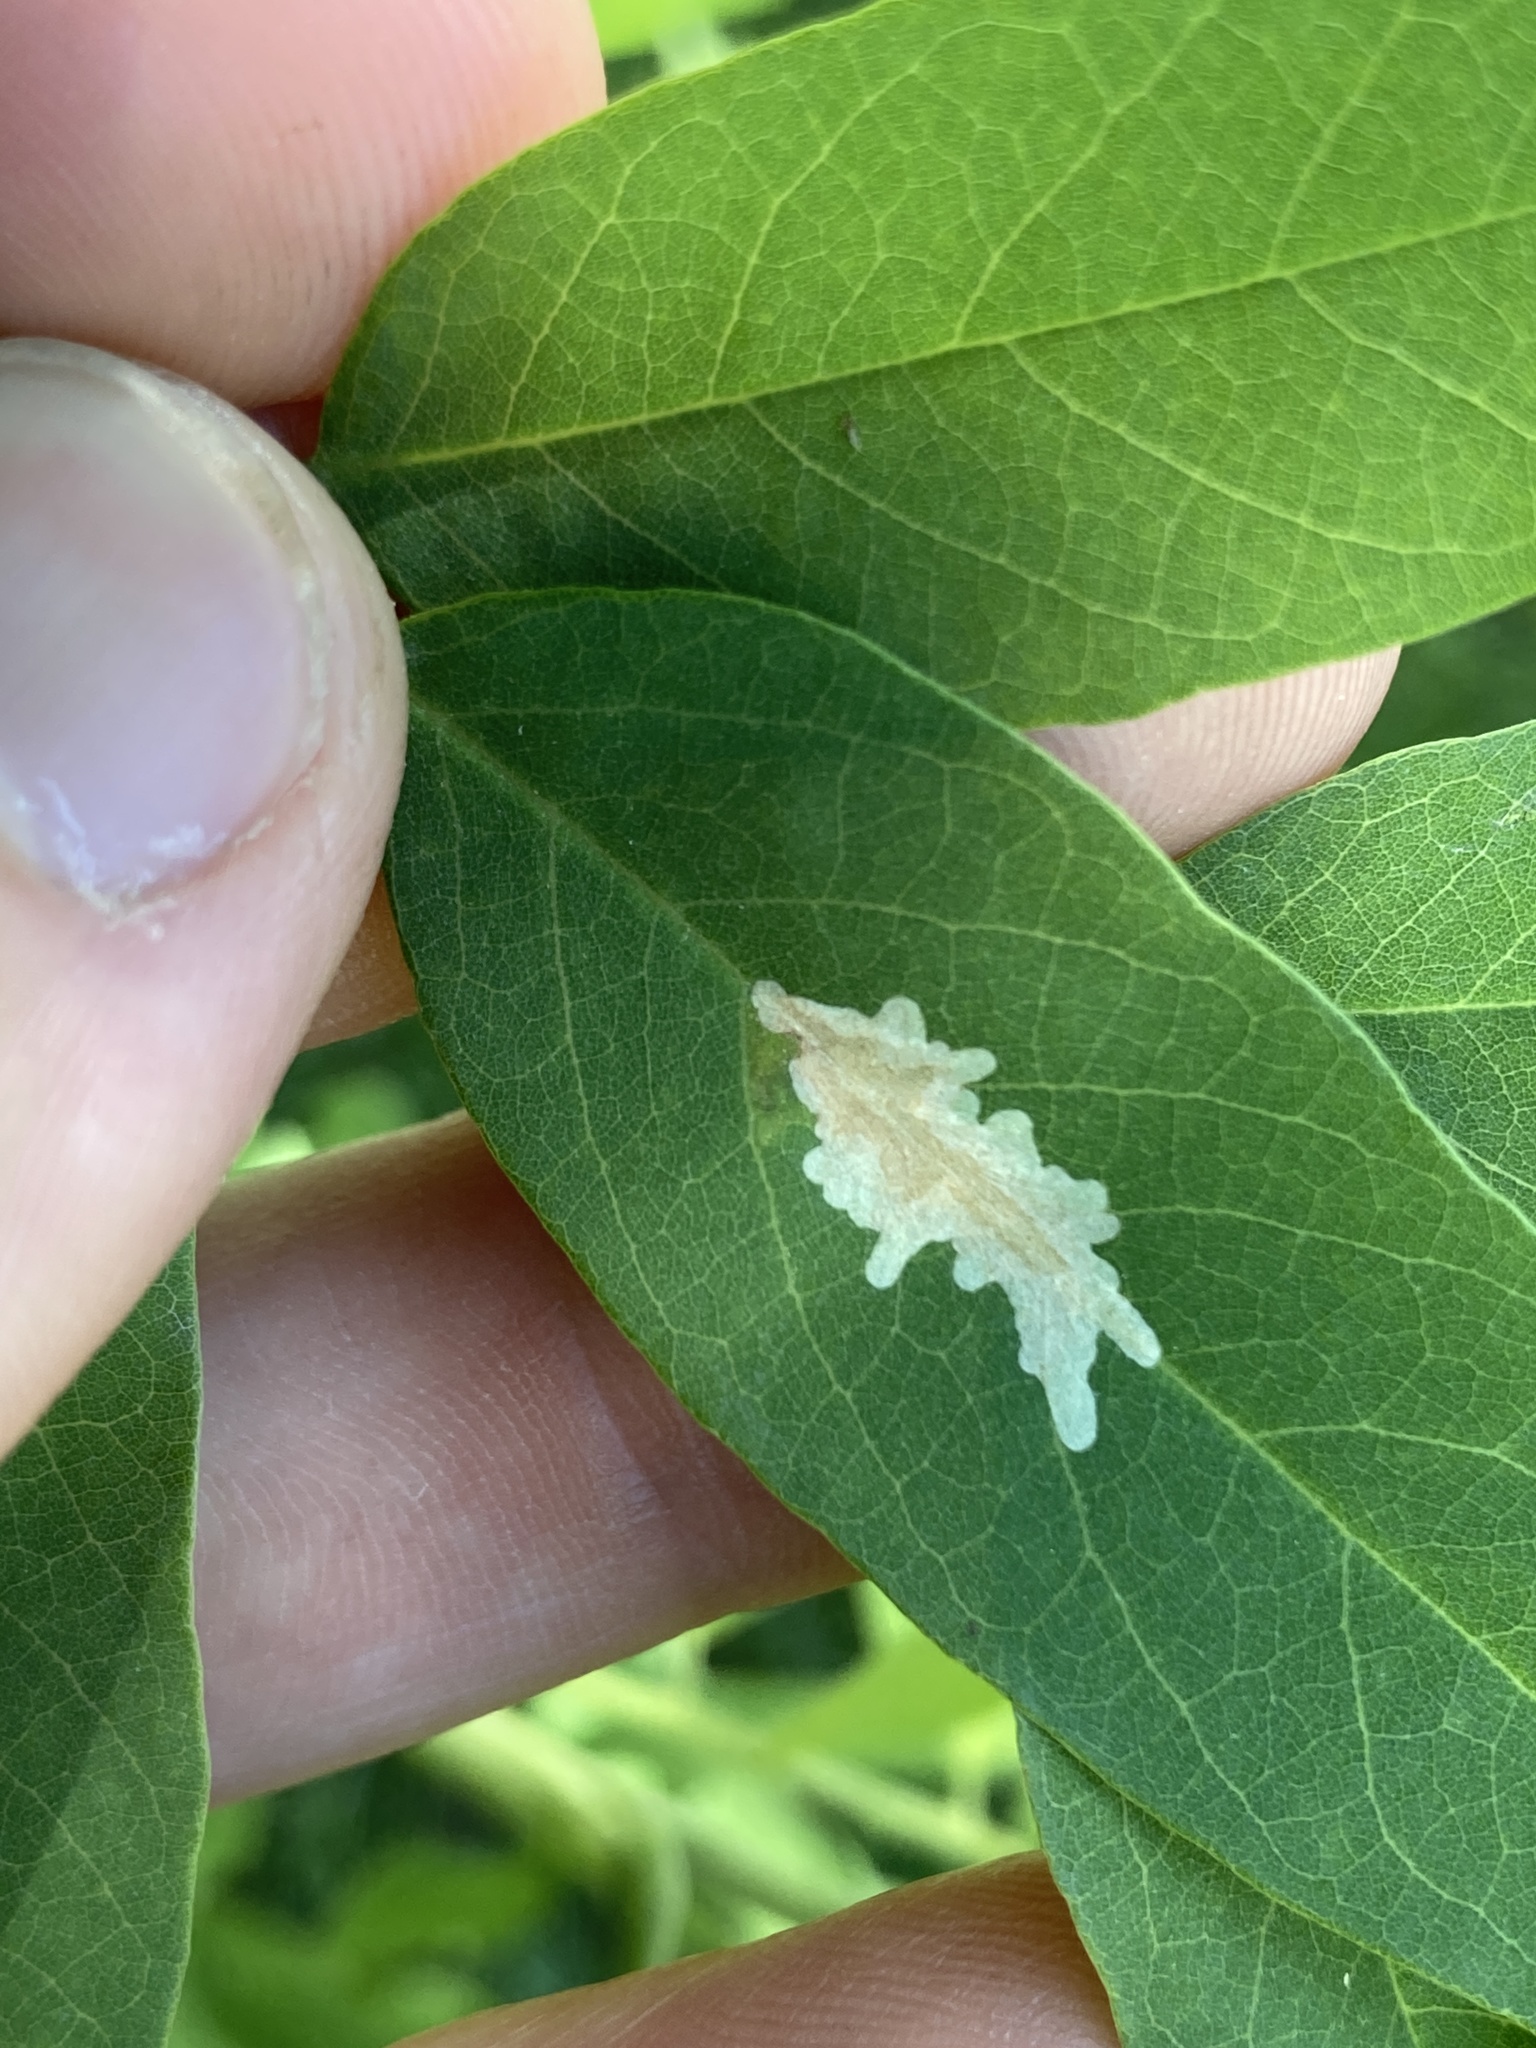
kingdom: Animalia
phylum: Arthropoda
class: Insecta
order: Lepidoptera
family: Gracillariidae
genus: Parectopa
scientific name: Parectopa robiniella
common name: Locust digitate leafminer
